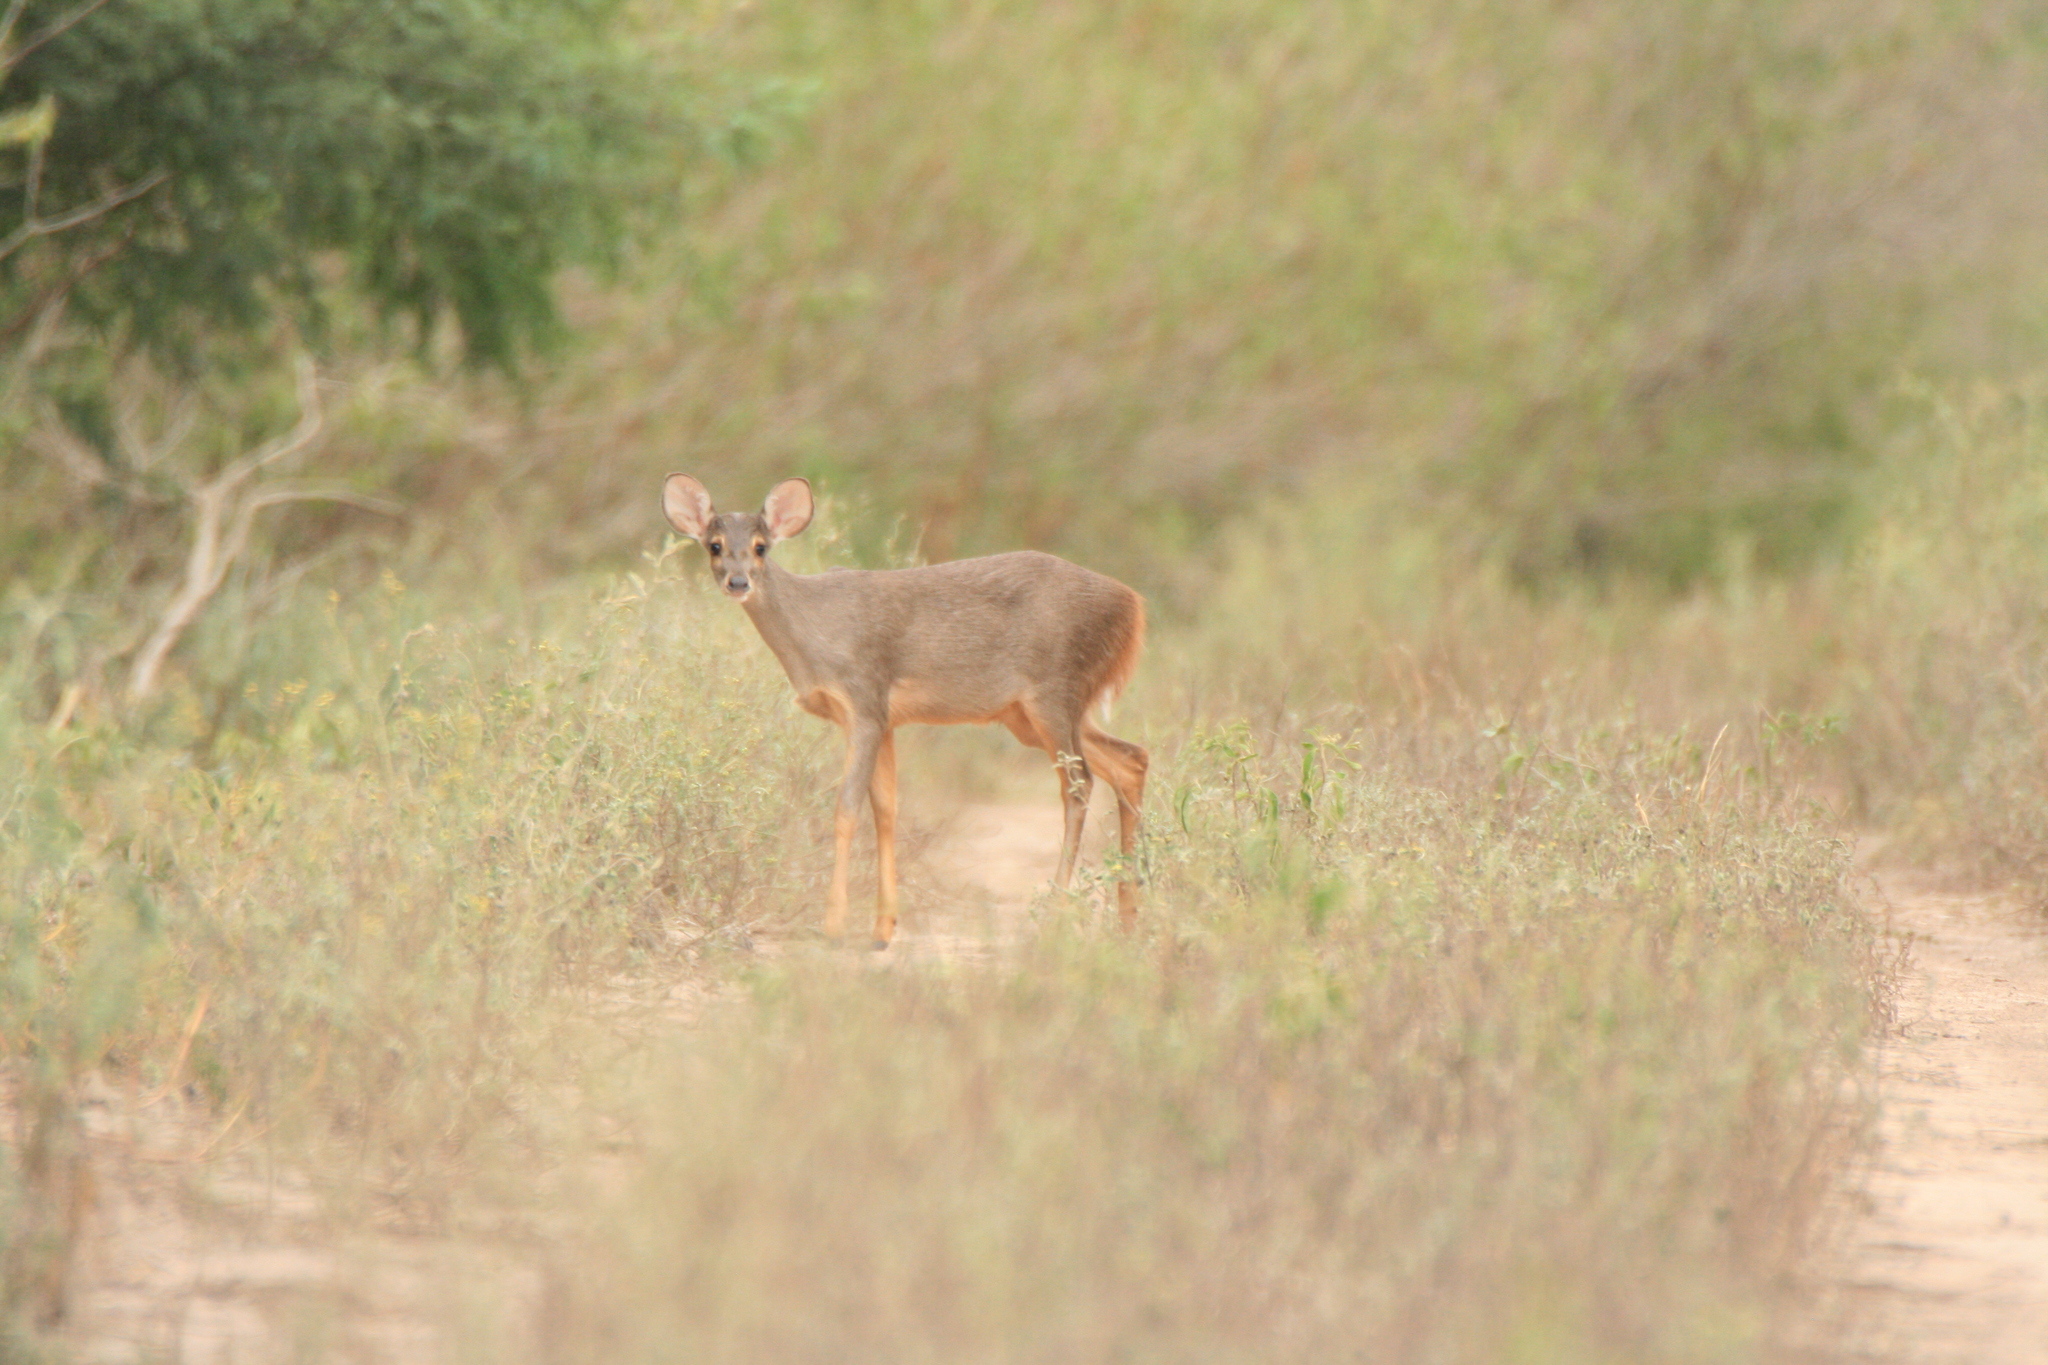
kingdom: Animalia
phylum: Chordata
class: Mammalia
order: Artiodactyla
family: Cervidae
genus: Mazama
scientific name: Mazama gouazoubira
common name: Gray brocket
